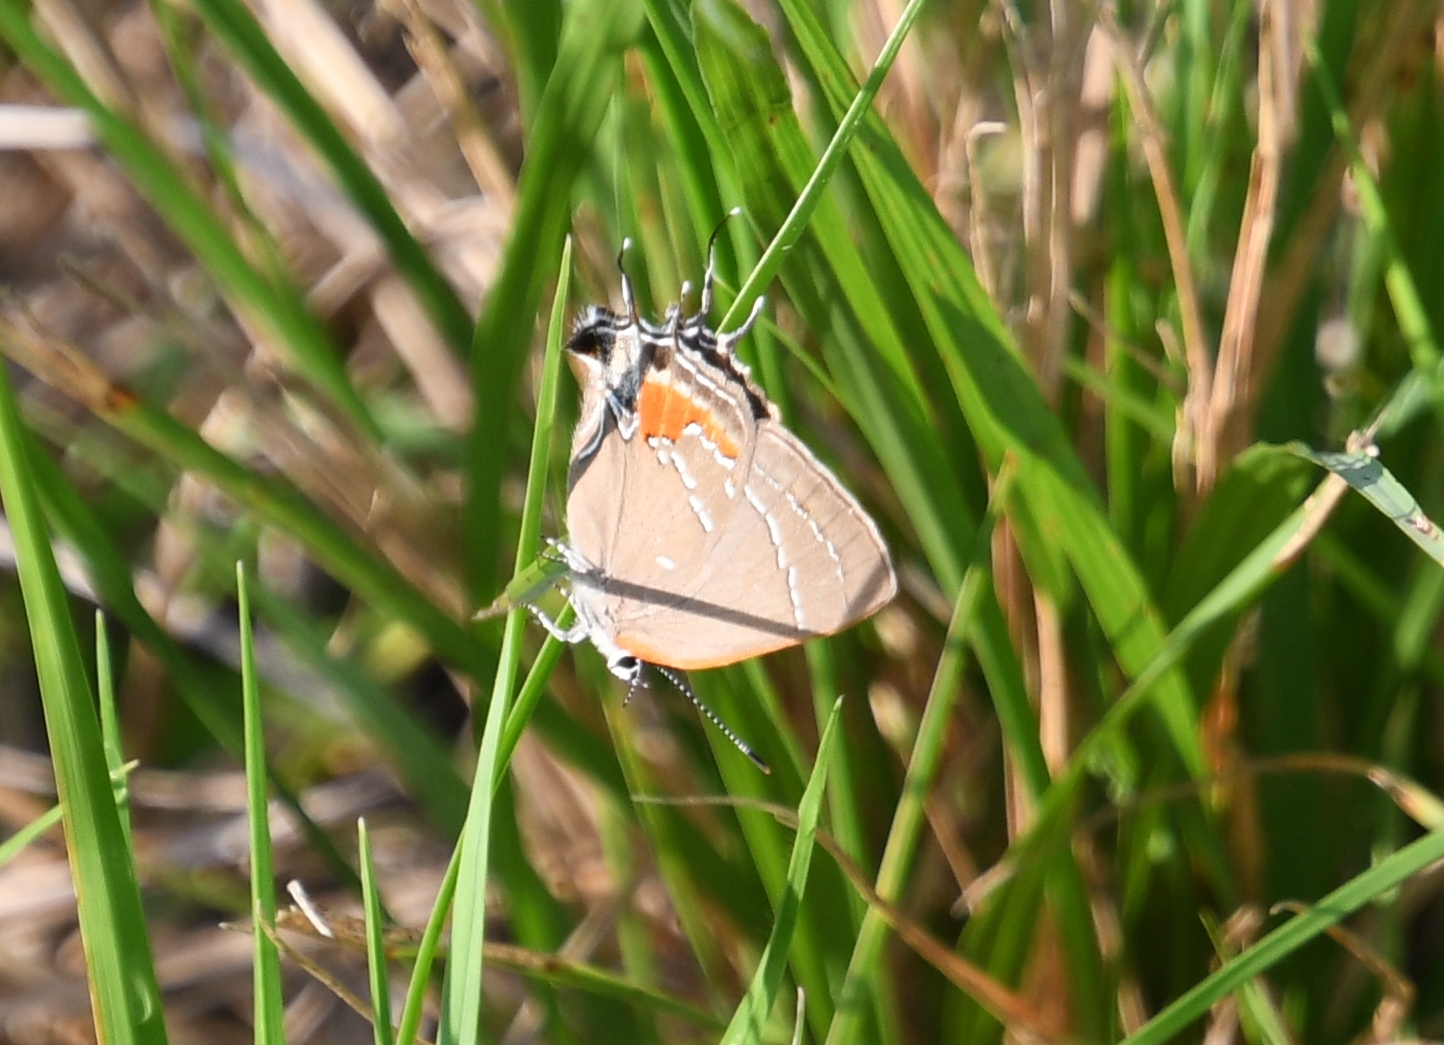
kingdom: Animalia
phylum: Arthropoda
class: Insecta
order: Lepidoptera
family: Lycaenidae
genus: Fixsenia
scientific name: Fixsenia favonius
